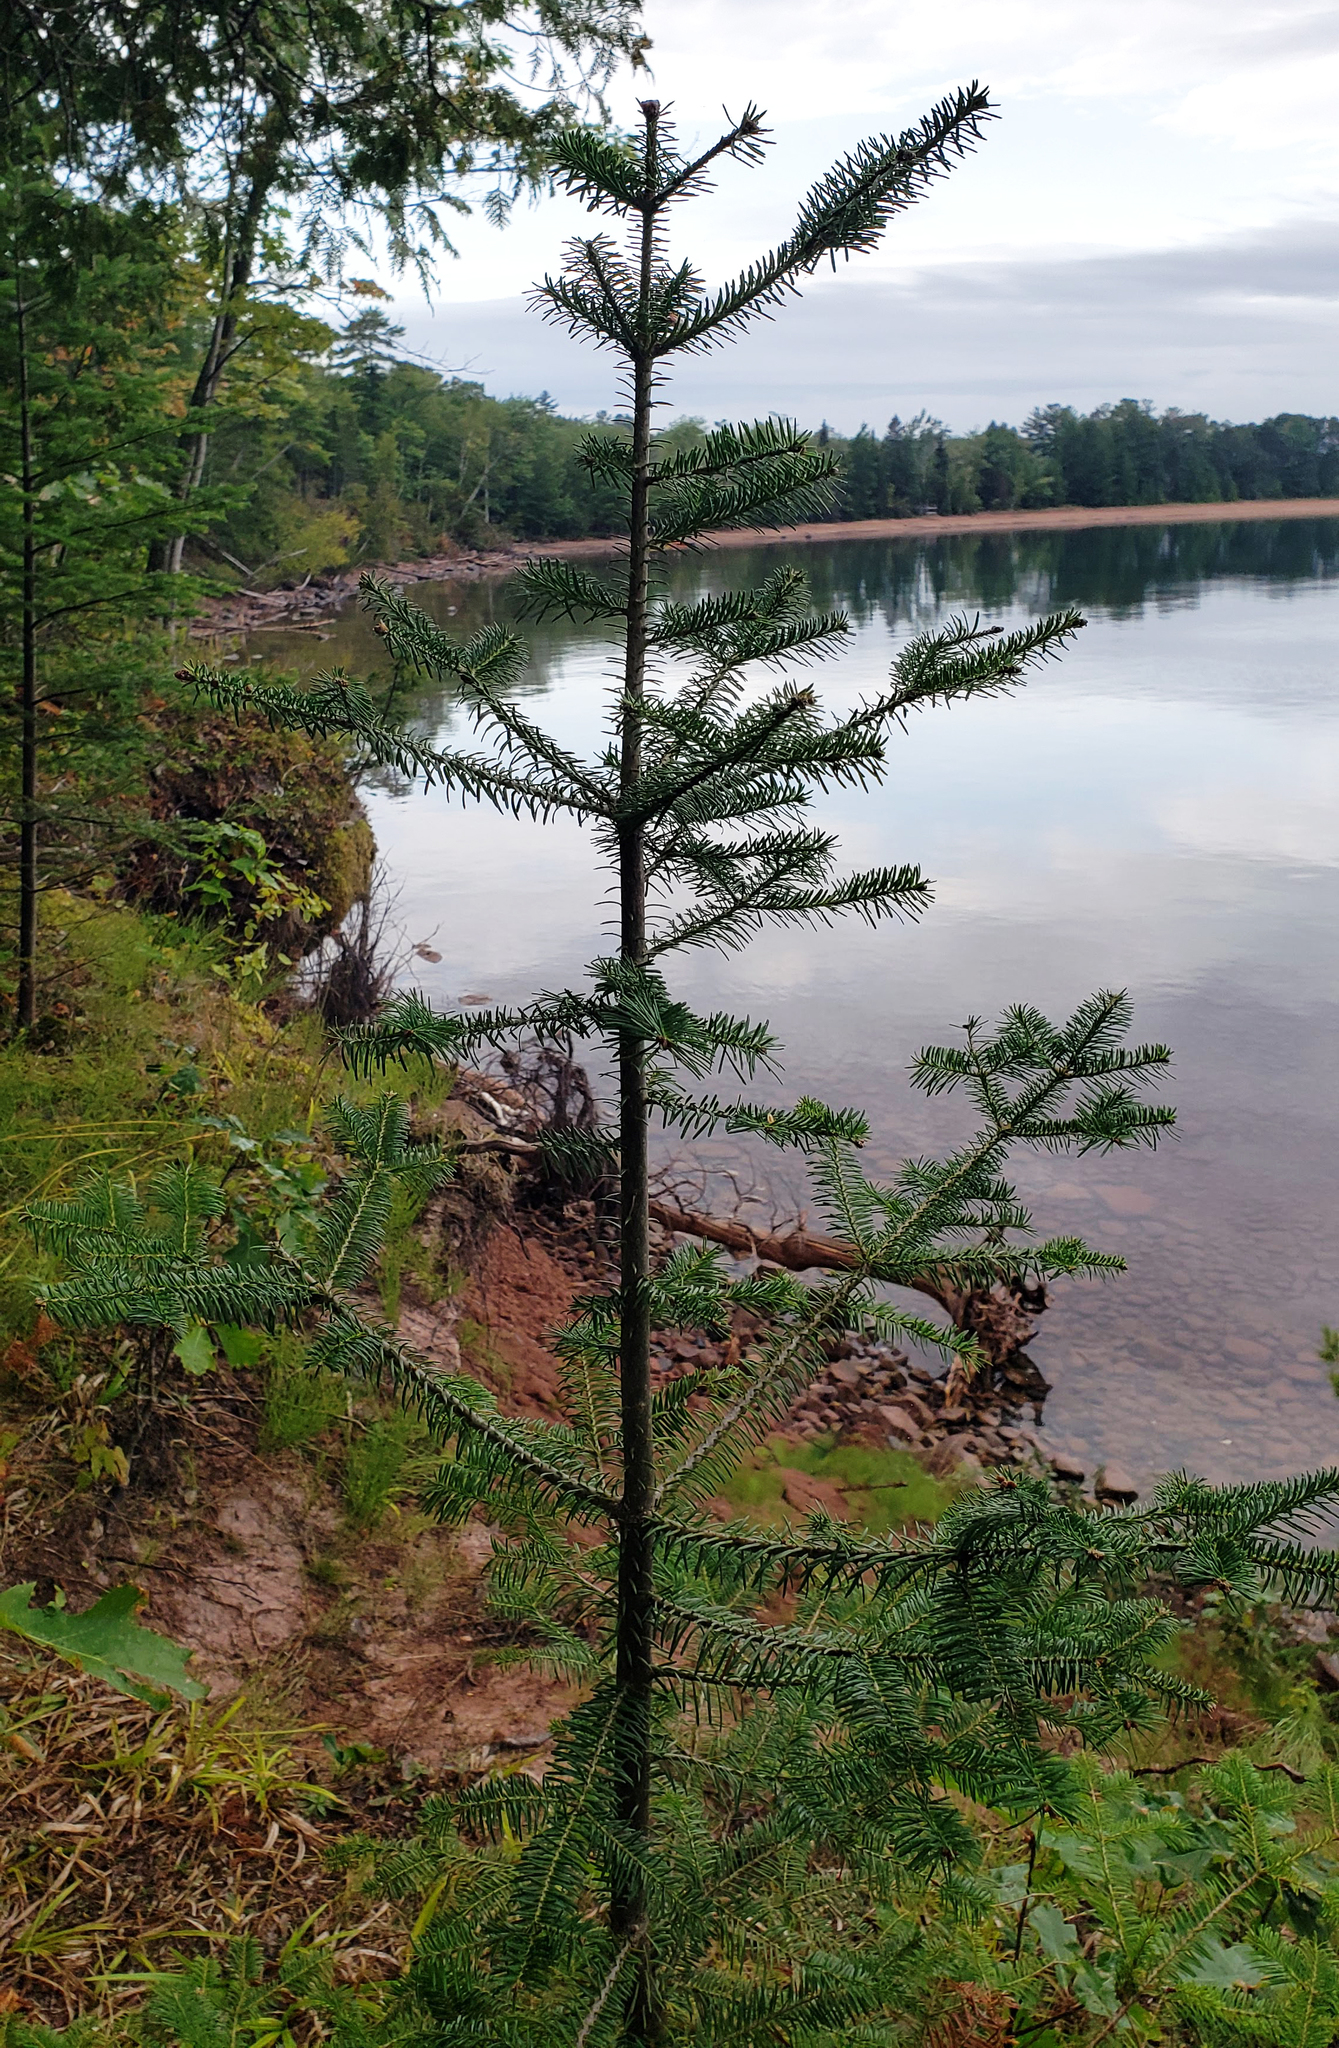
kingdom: Plantae
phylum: Tracheophyta
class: Pinopsida
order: Pinales
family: Pinaceae
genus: Abies
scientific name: Abies balsamea
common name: Balsam fir
